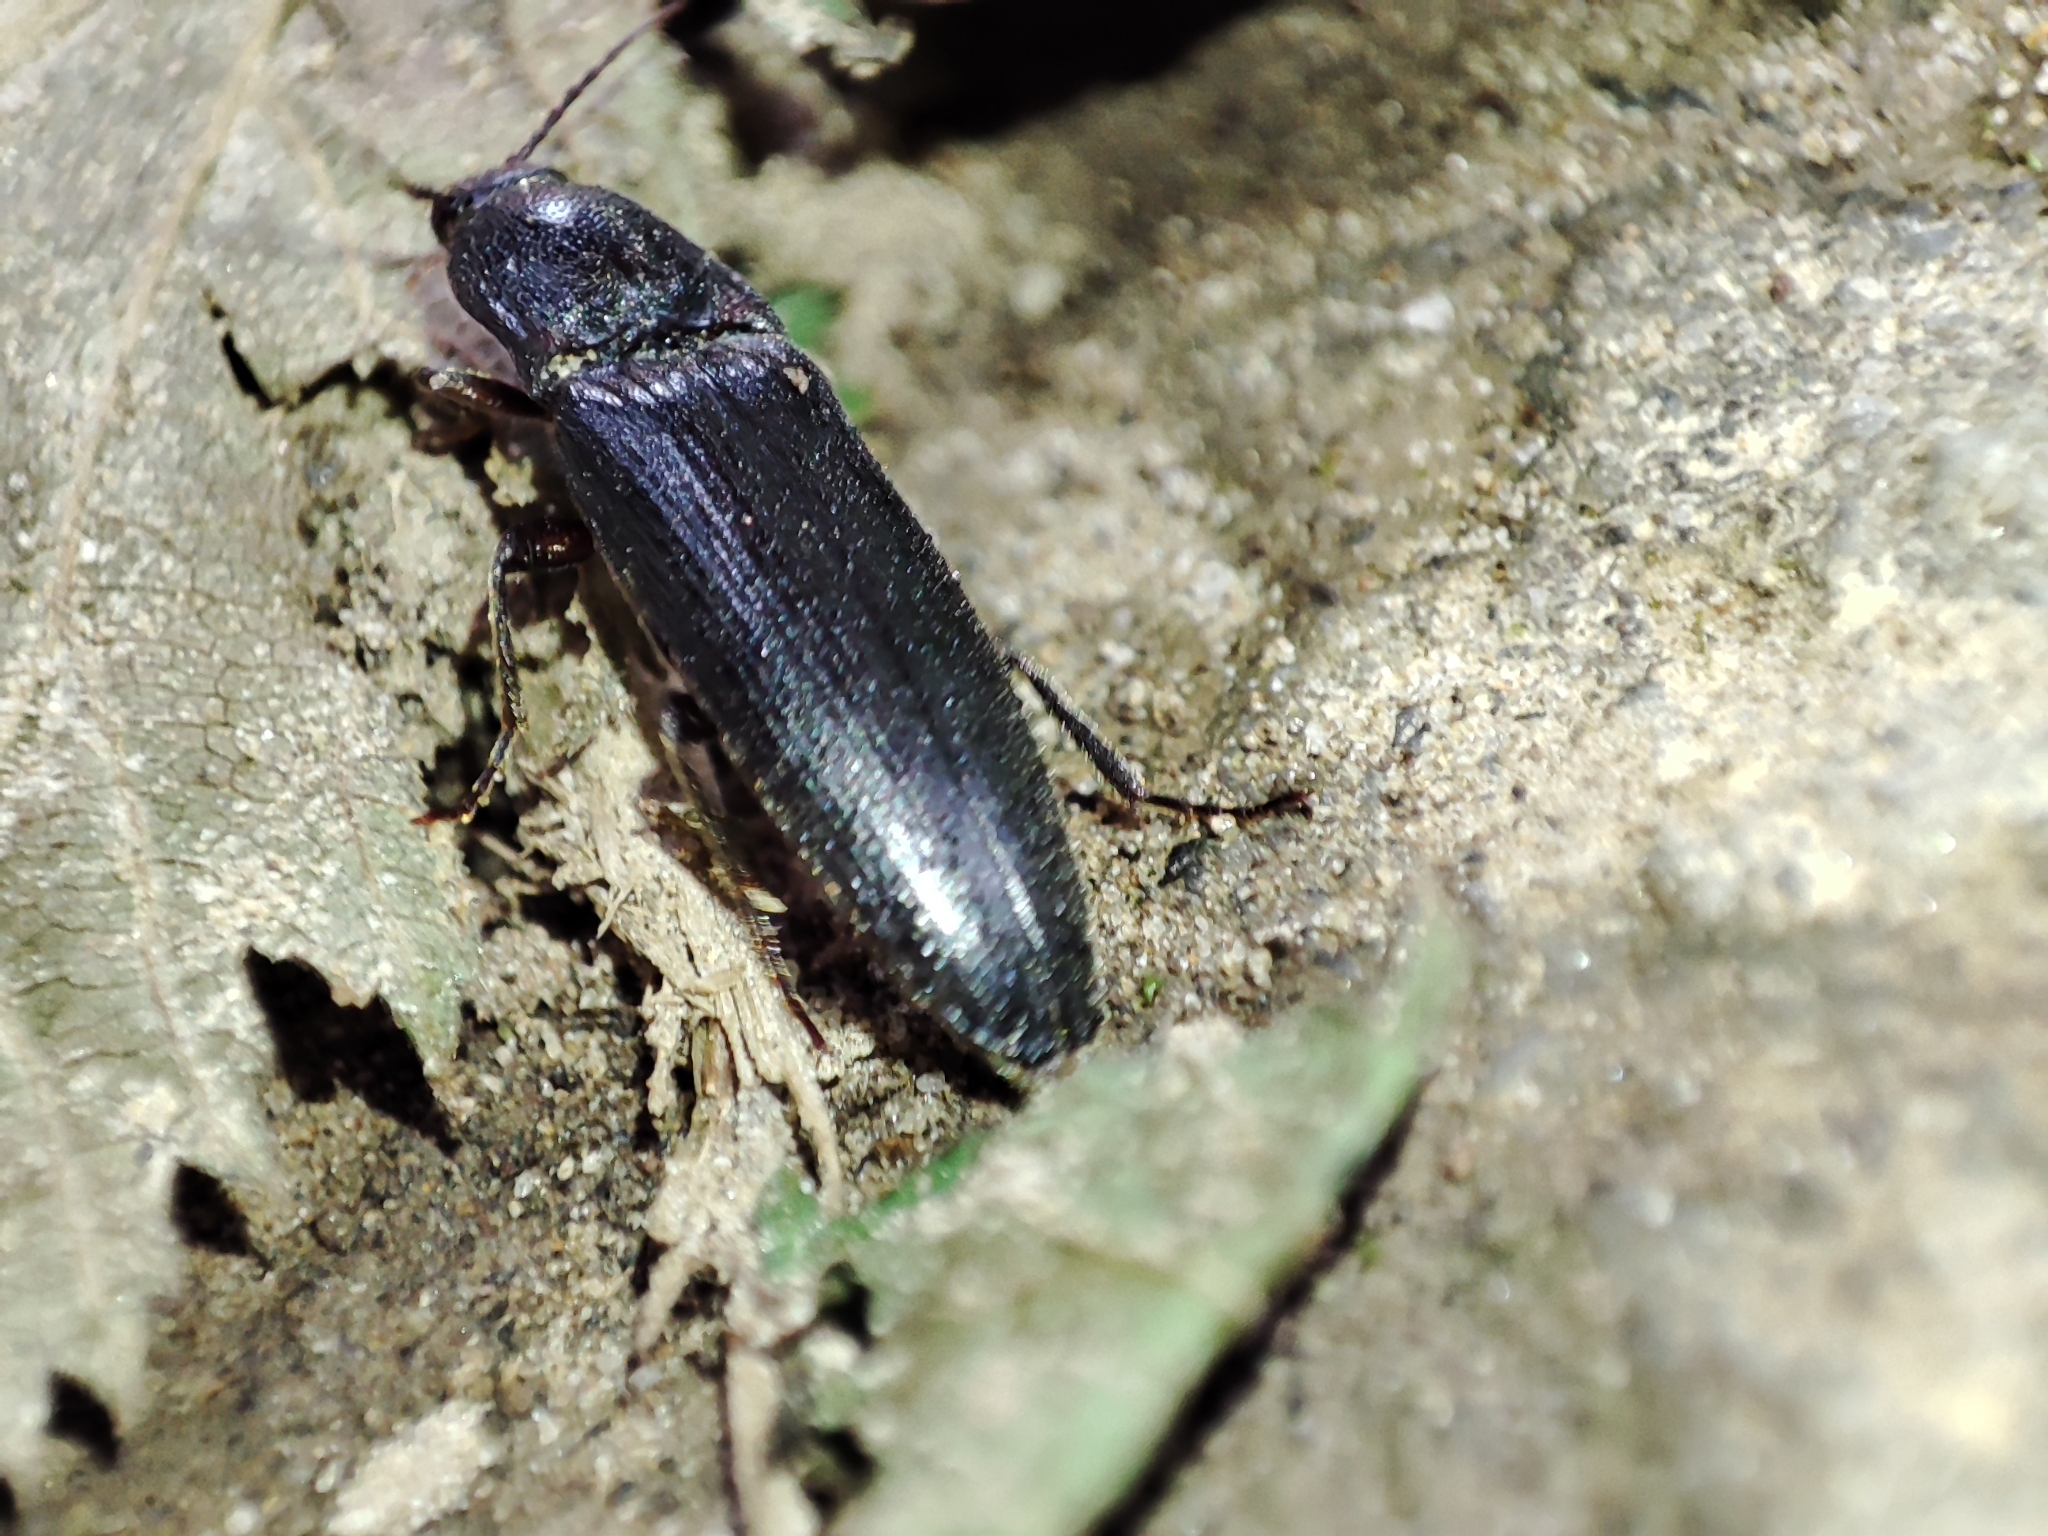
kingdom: Animalia
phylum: Arthropoda
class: Insecta
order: Coleoptera
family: Elateridae
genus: Melanotus
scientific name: Melanotus castanipes
